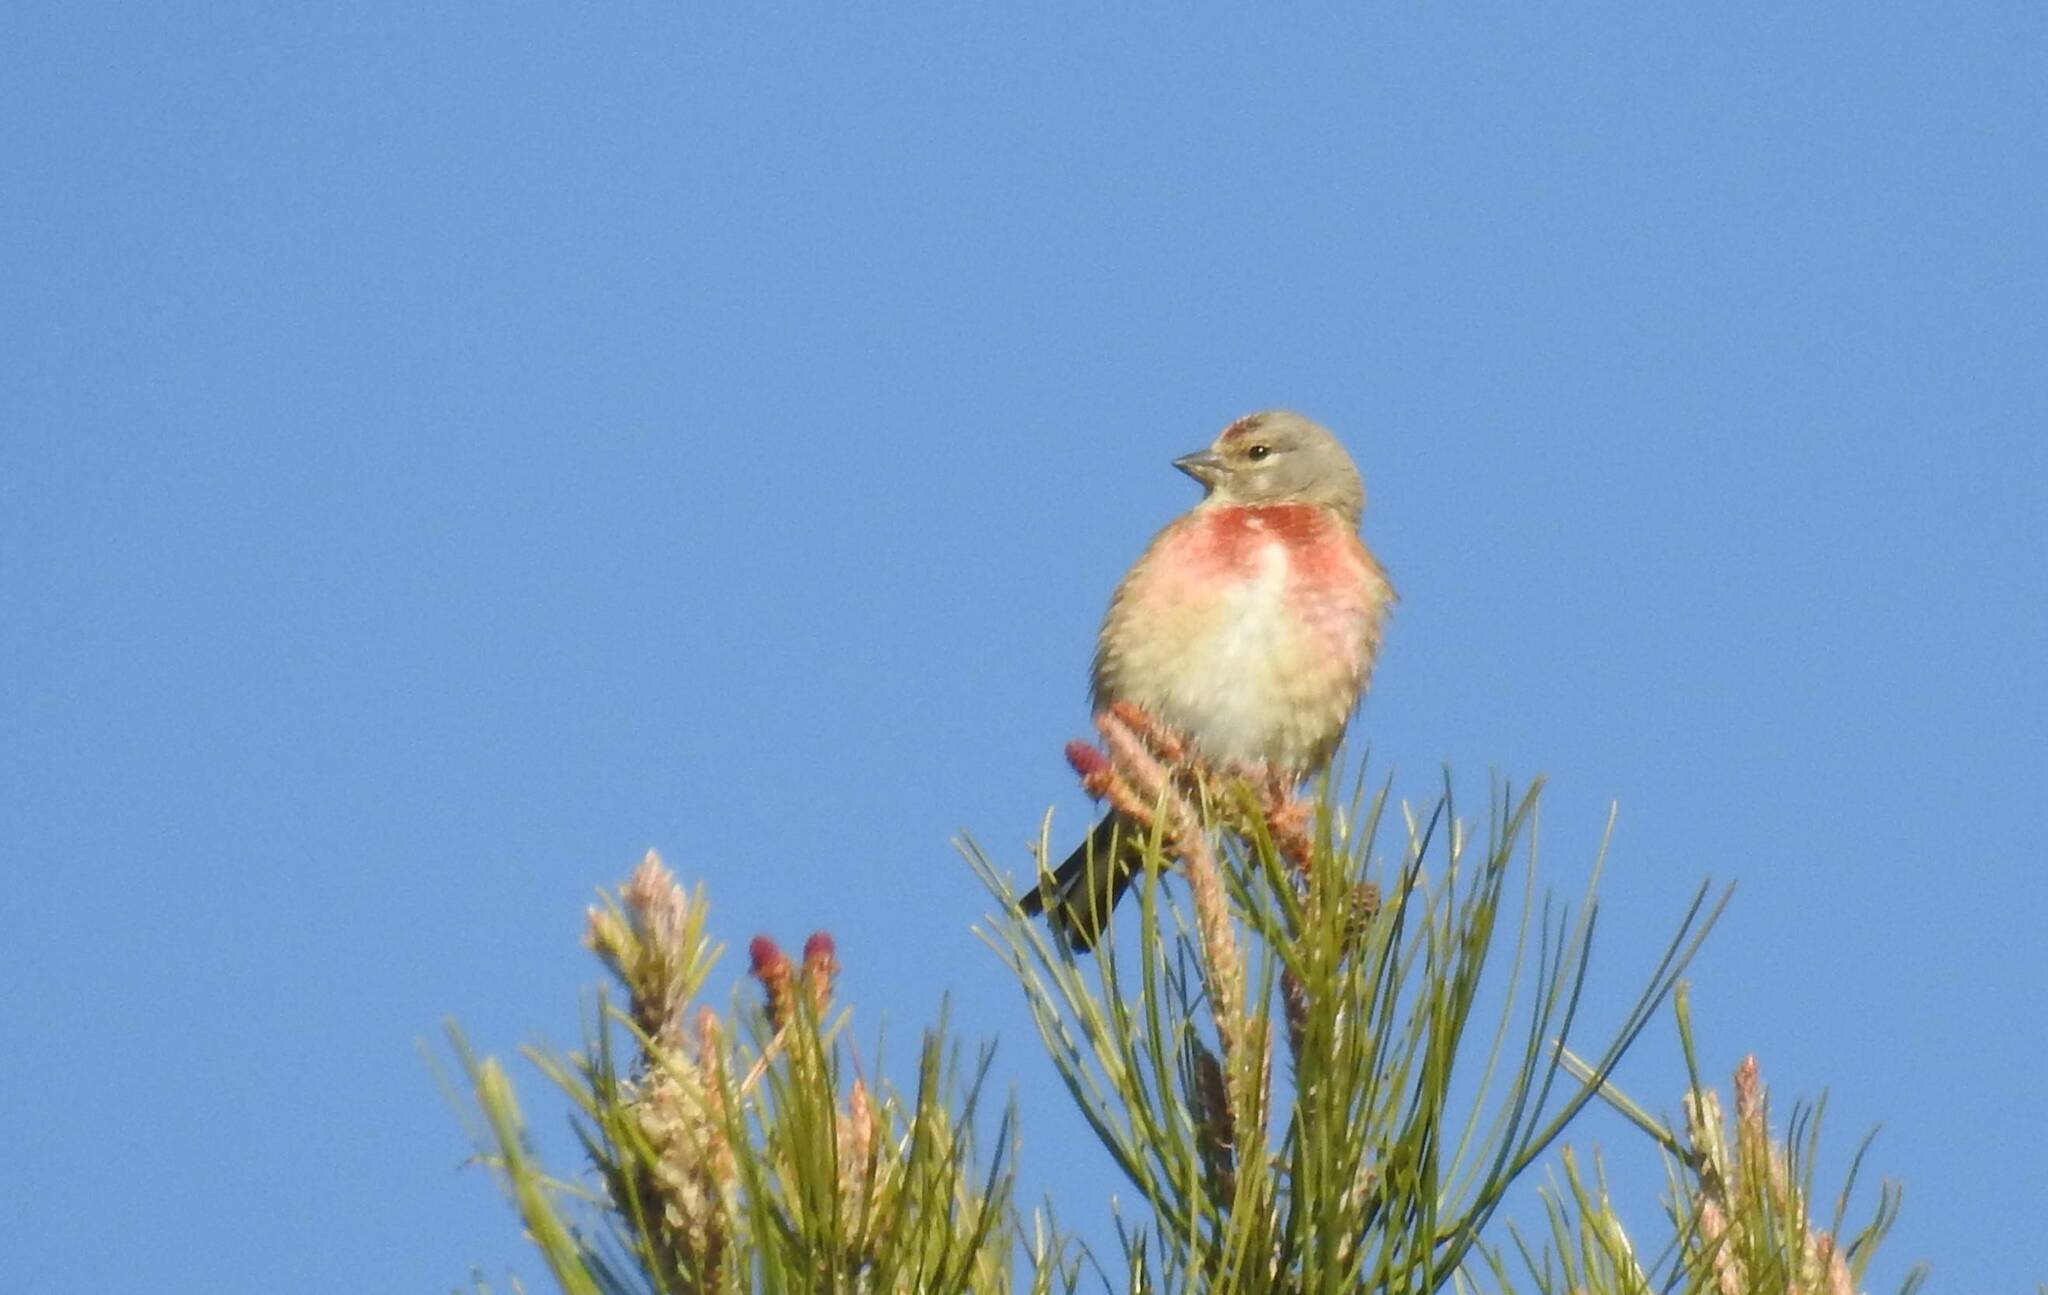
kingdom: Animalia
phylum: Chordata
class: Aves
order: Passeriformes
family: Fringillidae
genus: Linaria
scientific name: Linaria cannabina
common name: Common linnet
